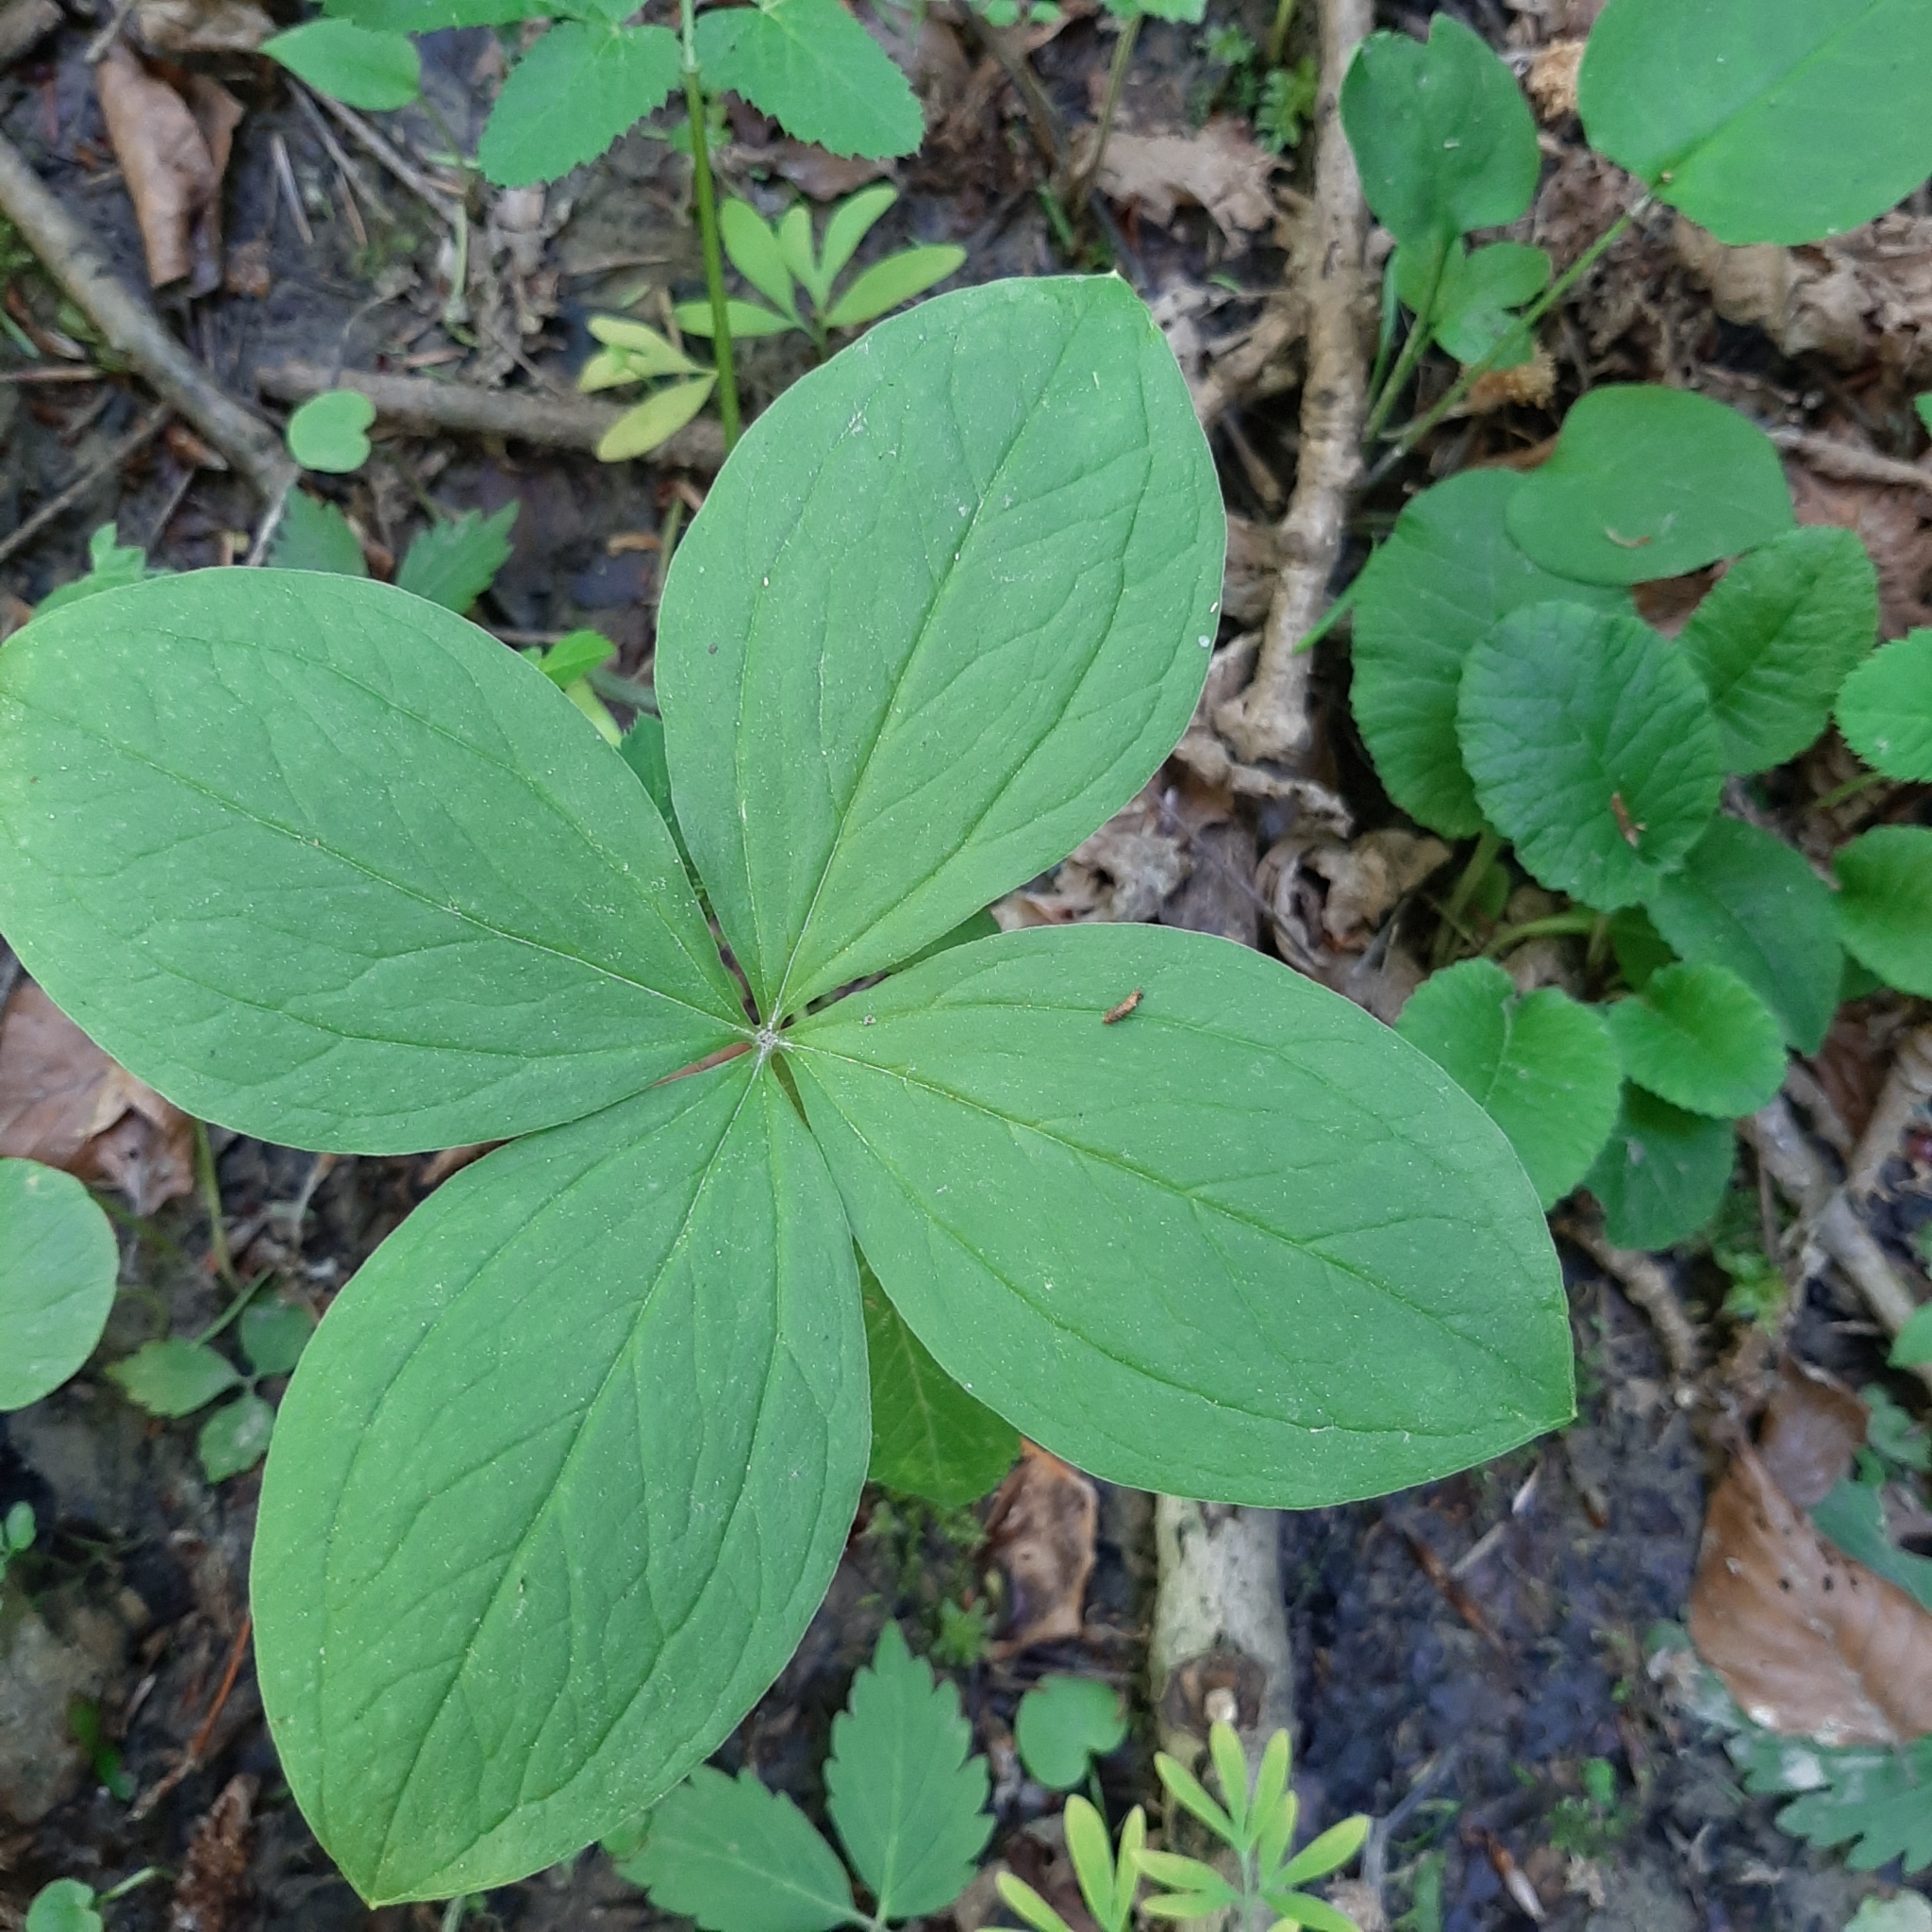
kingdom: Plantae
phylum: Tracheophyta
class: Liliopsida
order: Liliales
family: Melanthiaceae
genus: Paris
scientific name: Paris quadrifolia
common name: Herb-paris
